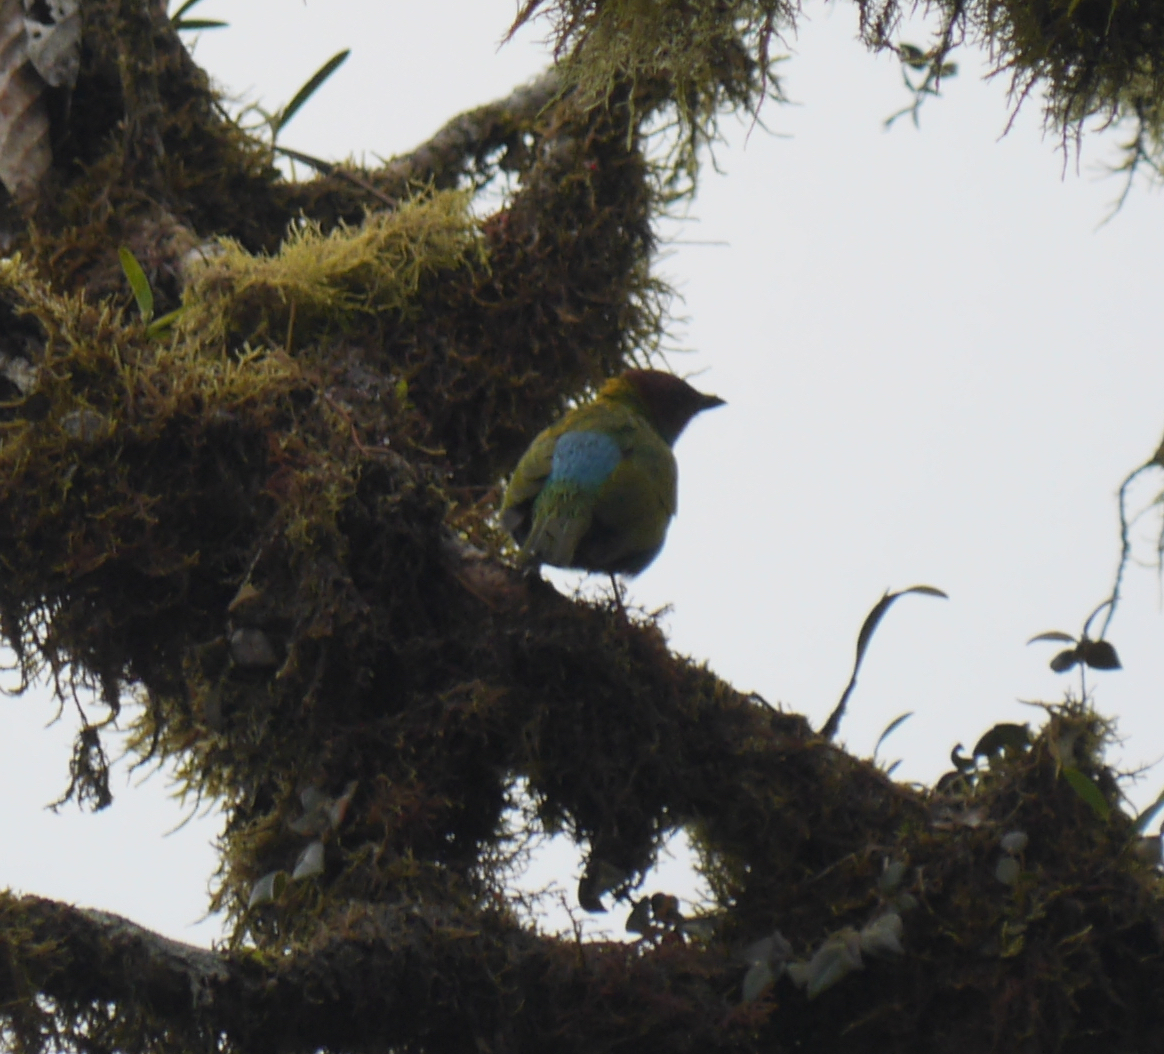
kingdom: Animalia
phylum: Chordata
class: Aves
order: Passeriformes
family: Thraupidae
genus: Tangara
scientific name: Tangara gyrola
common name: Bay-headed tanager
